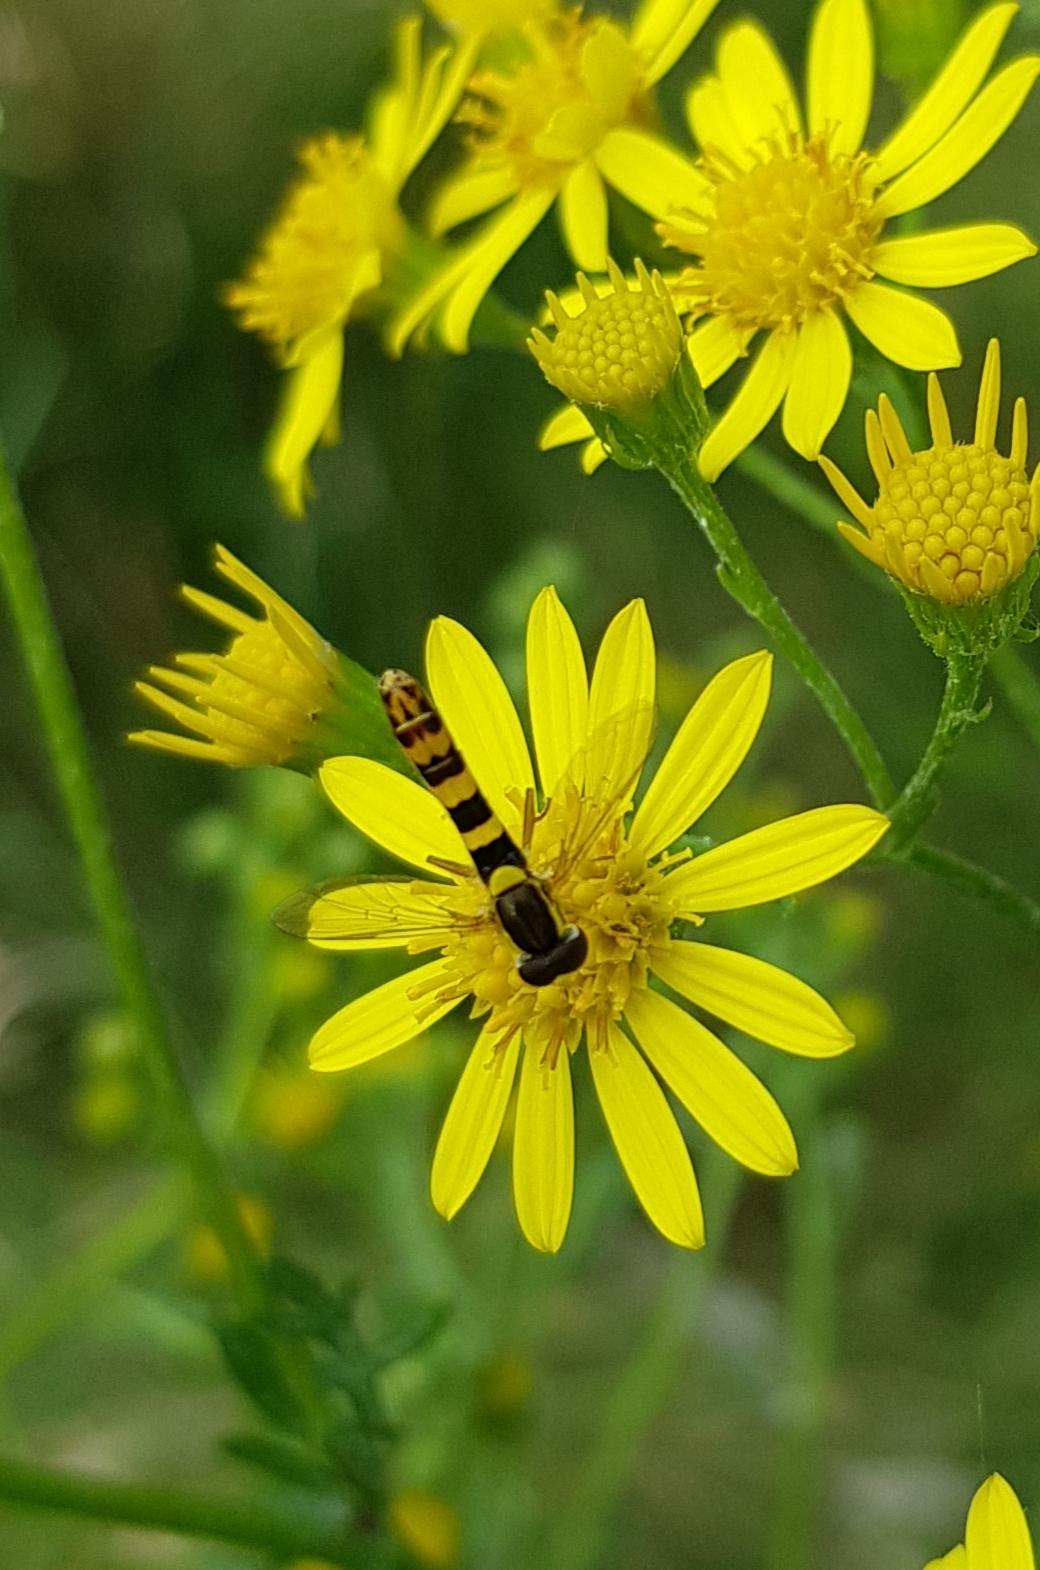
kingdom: Animalia
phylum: Arthropoda
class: Insecta
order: Diptera
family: Syrphidae
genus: Sphaerophoria
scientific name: Sphaerophoria scripta
